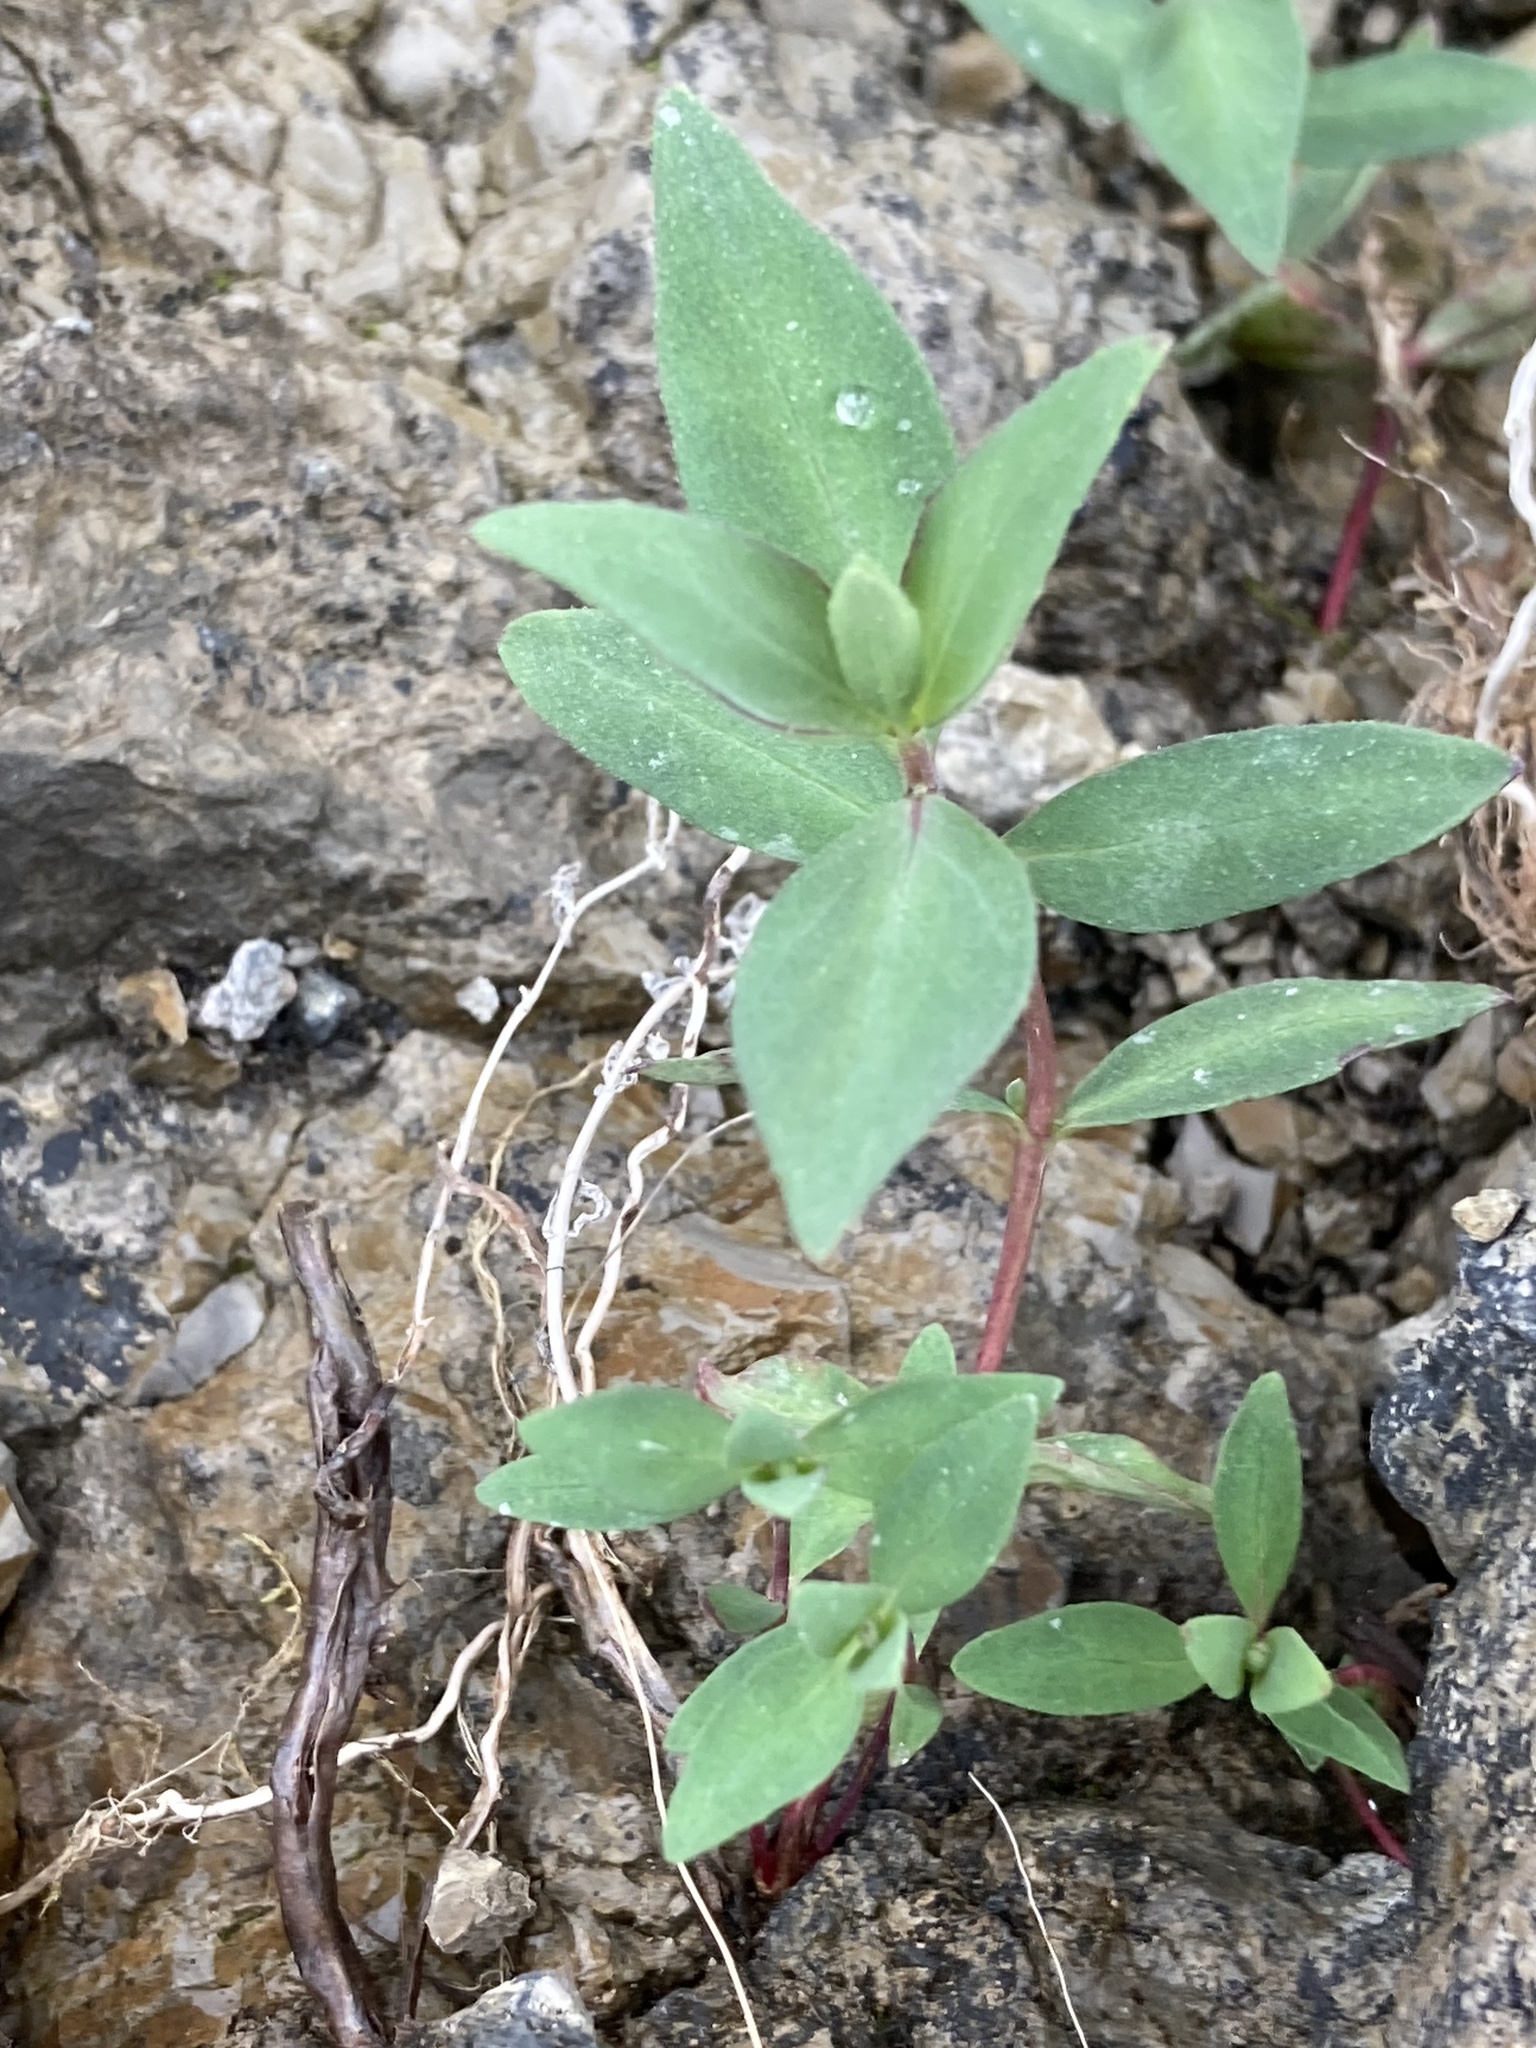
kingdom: Plantae
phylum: Tracheophyta
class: Magnoliopsida
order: Myrtales
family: Onagraceae
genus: Chamaenerion
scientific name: Chamaenerion latifolium
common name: Dwarf fireweed
